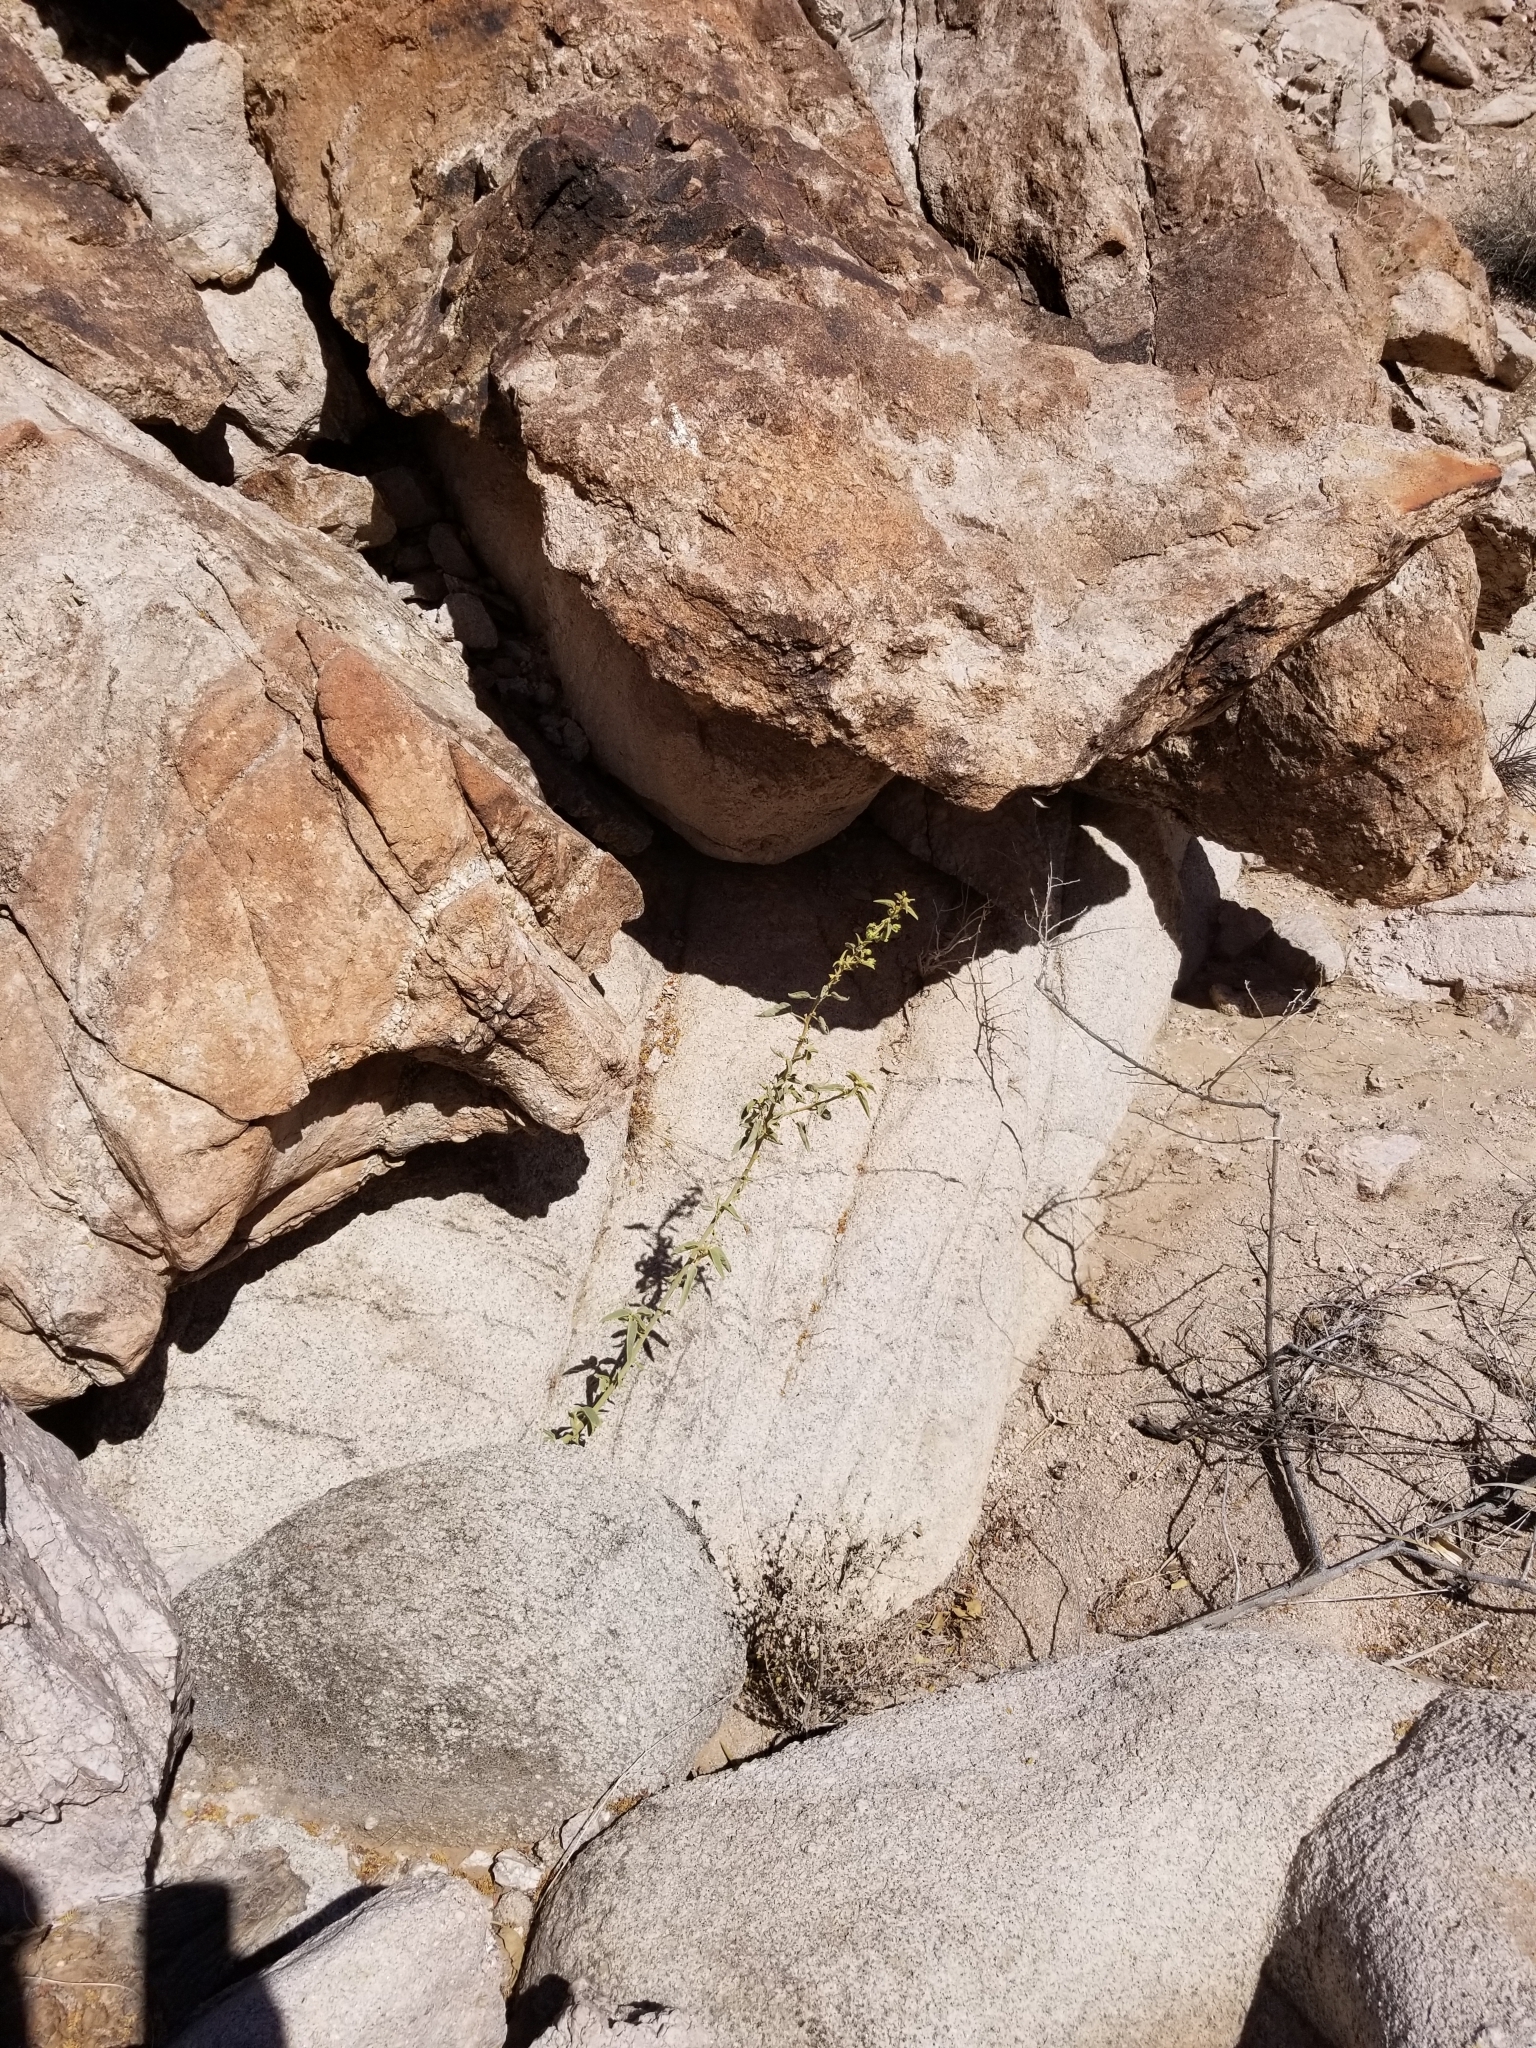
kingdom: Plantae
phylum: Tracheophyta
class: Magnoliopsida
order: Malvales
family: Malvaceae
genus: Horsfordia
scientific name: Horsfordia newberryi
